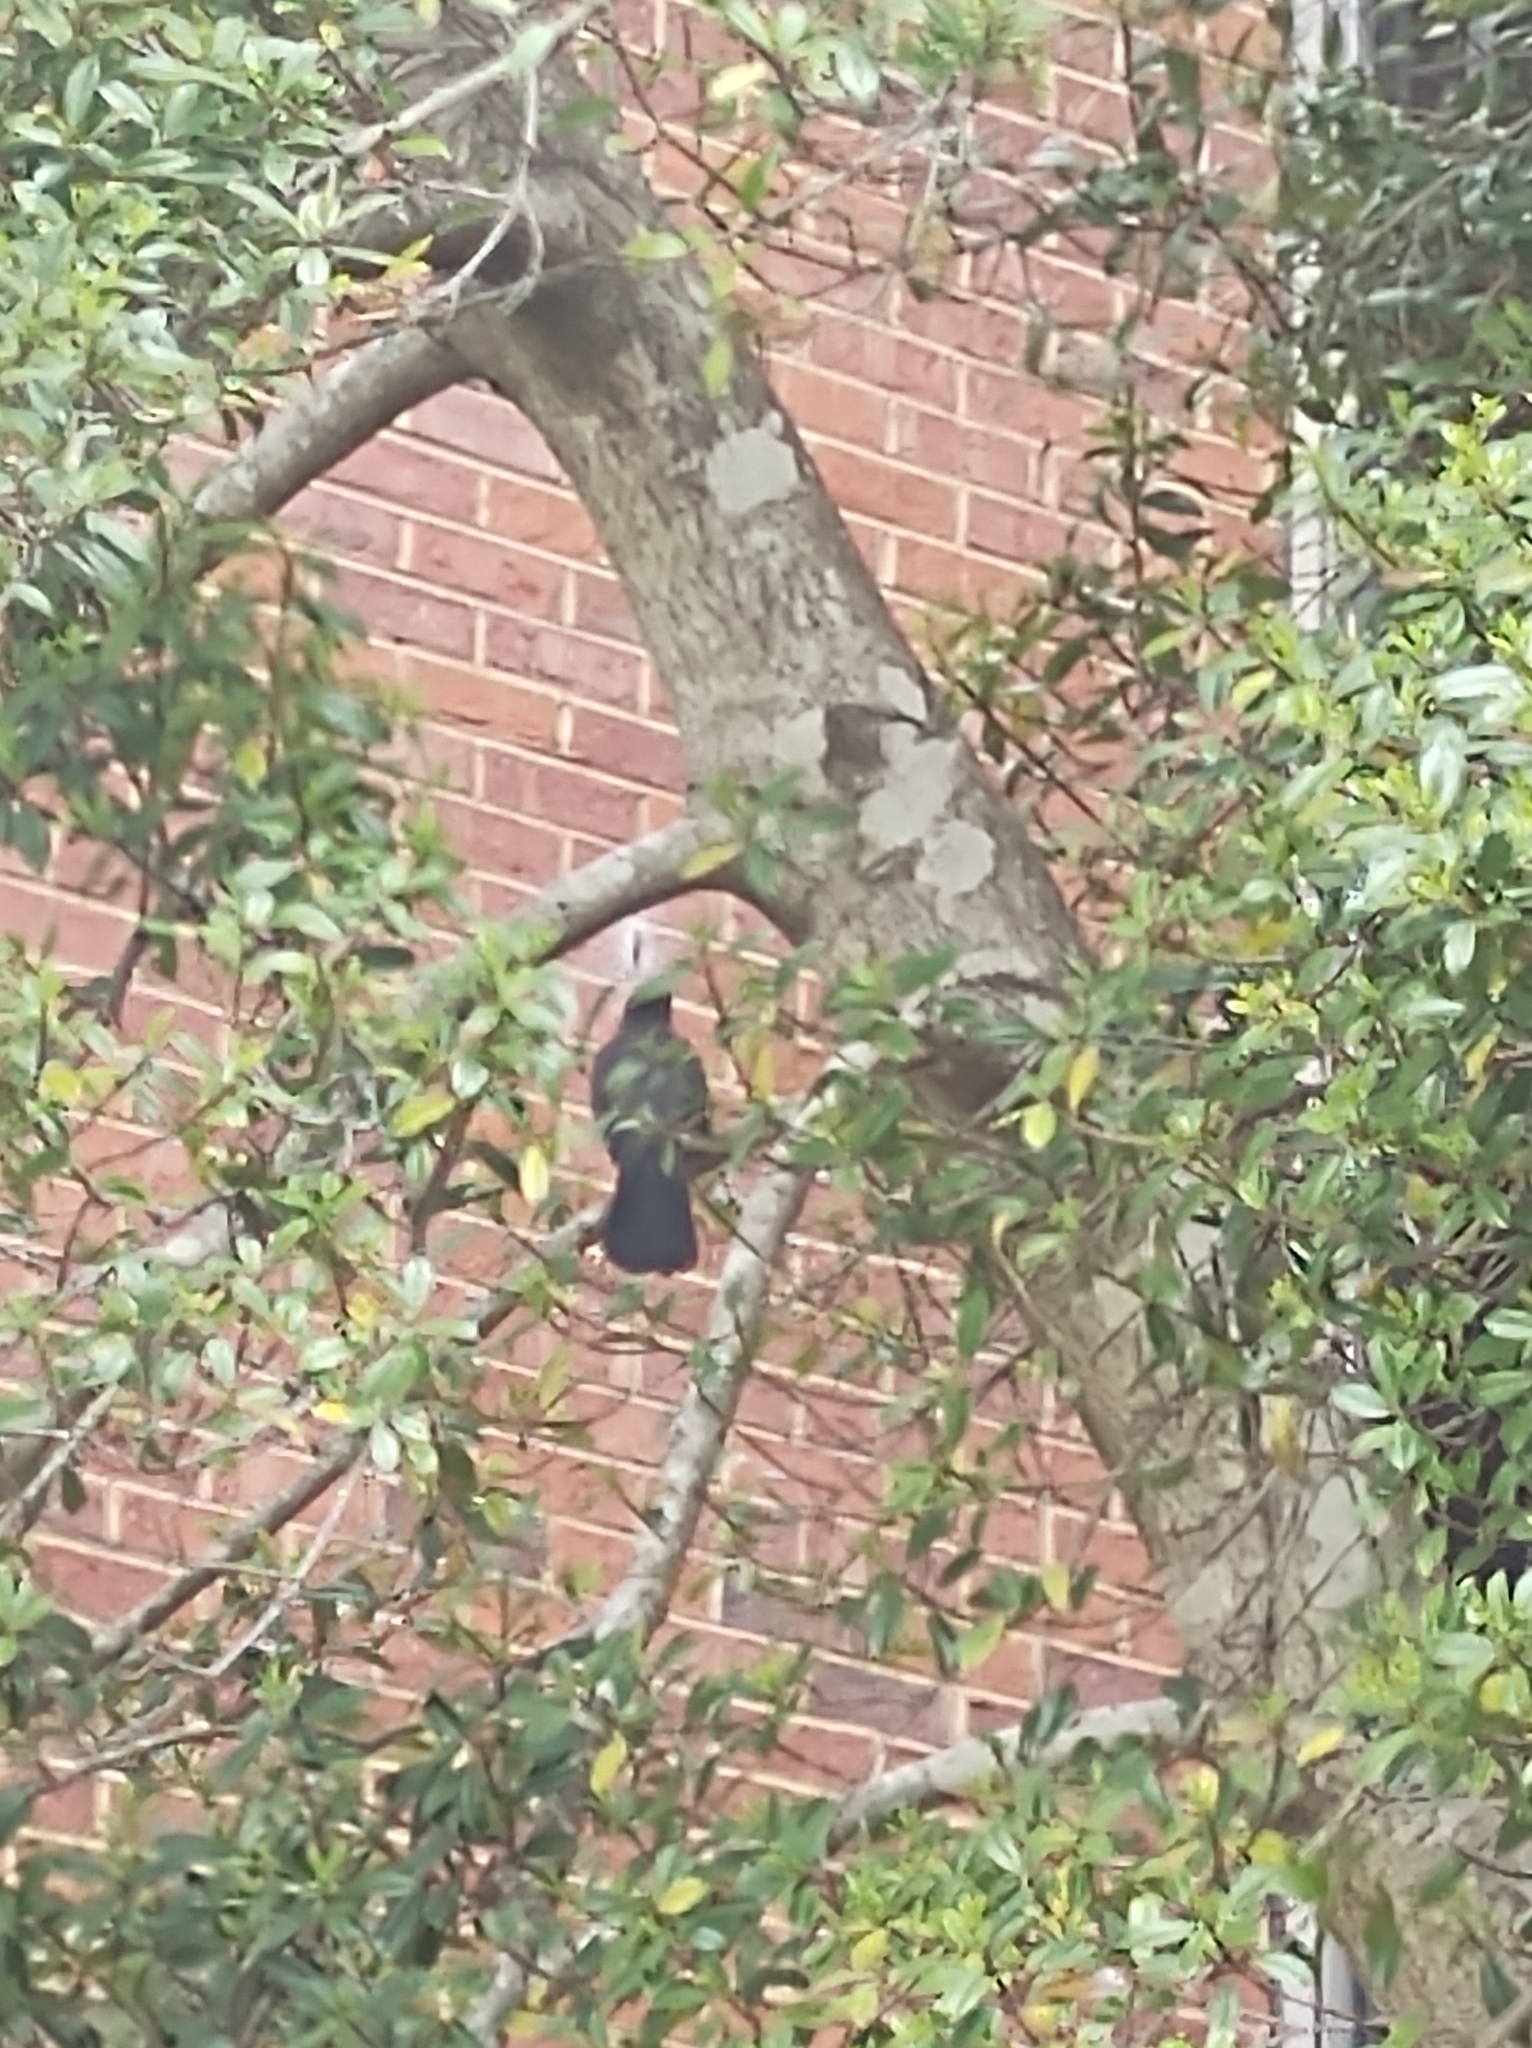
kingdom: Animalia
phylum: Chordata
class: Aves
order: Passeriformes
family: Mimidae
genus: Dumetella
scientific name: Dumetella carolinensis
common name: Gray catbird
